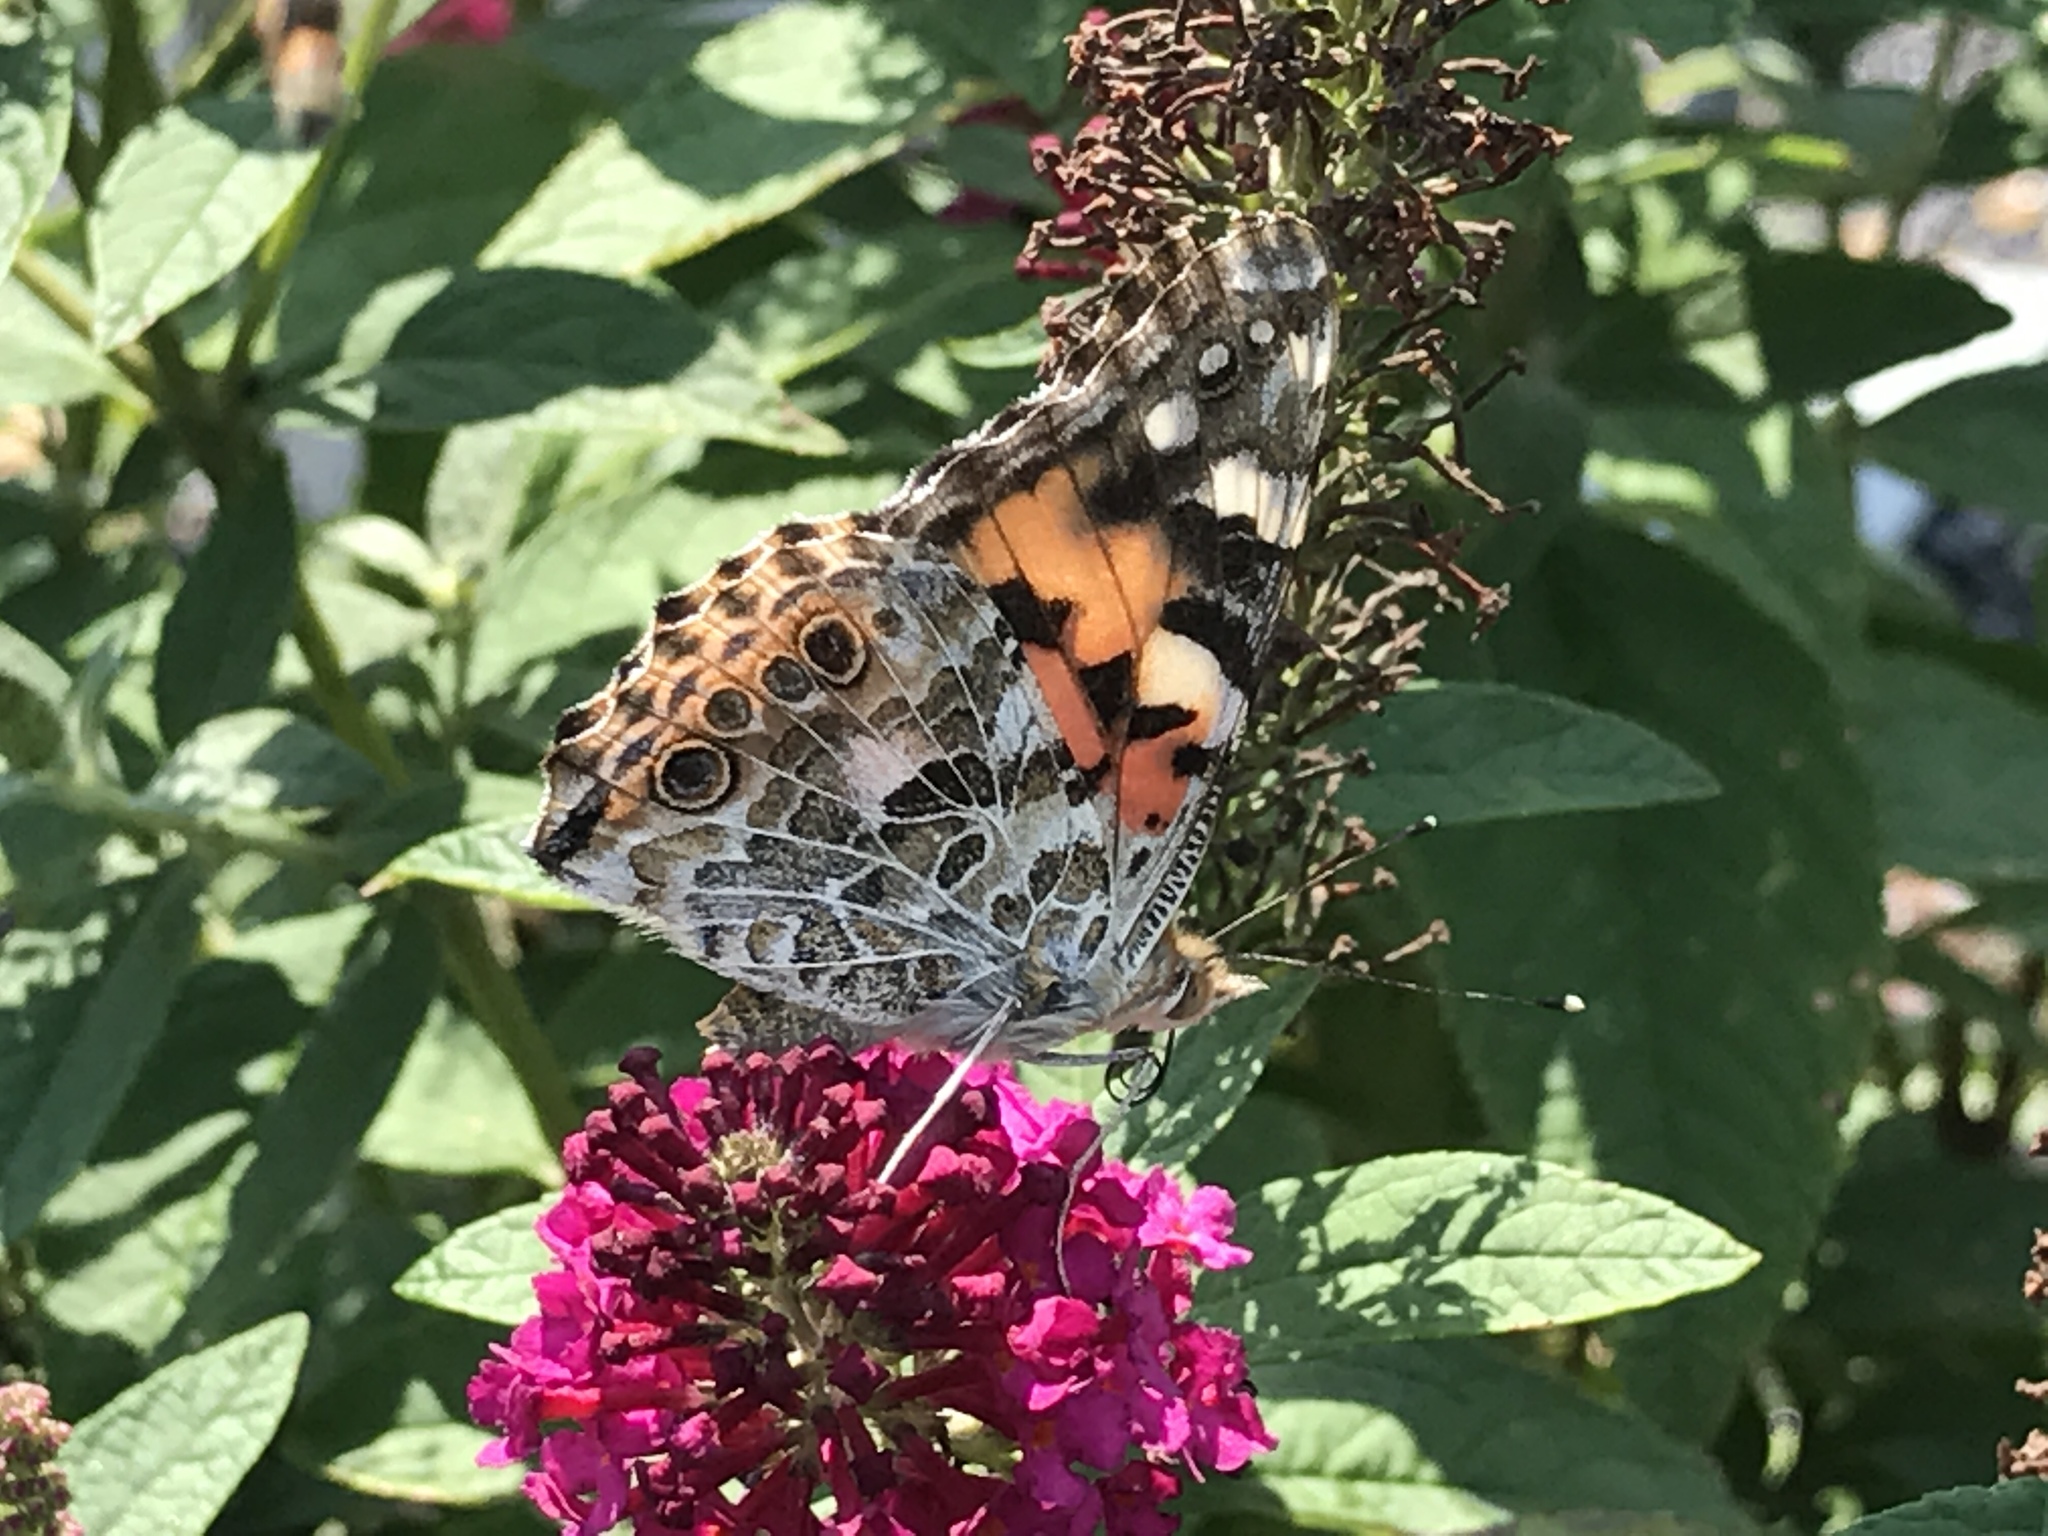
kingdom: Animalia
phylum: Arthropoda
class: Insecta
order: Lepidoptera
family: Nymphalidae
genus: Vanessa
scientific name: Vanessa cardui
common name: Painted lady
